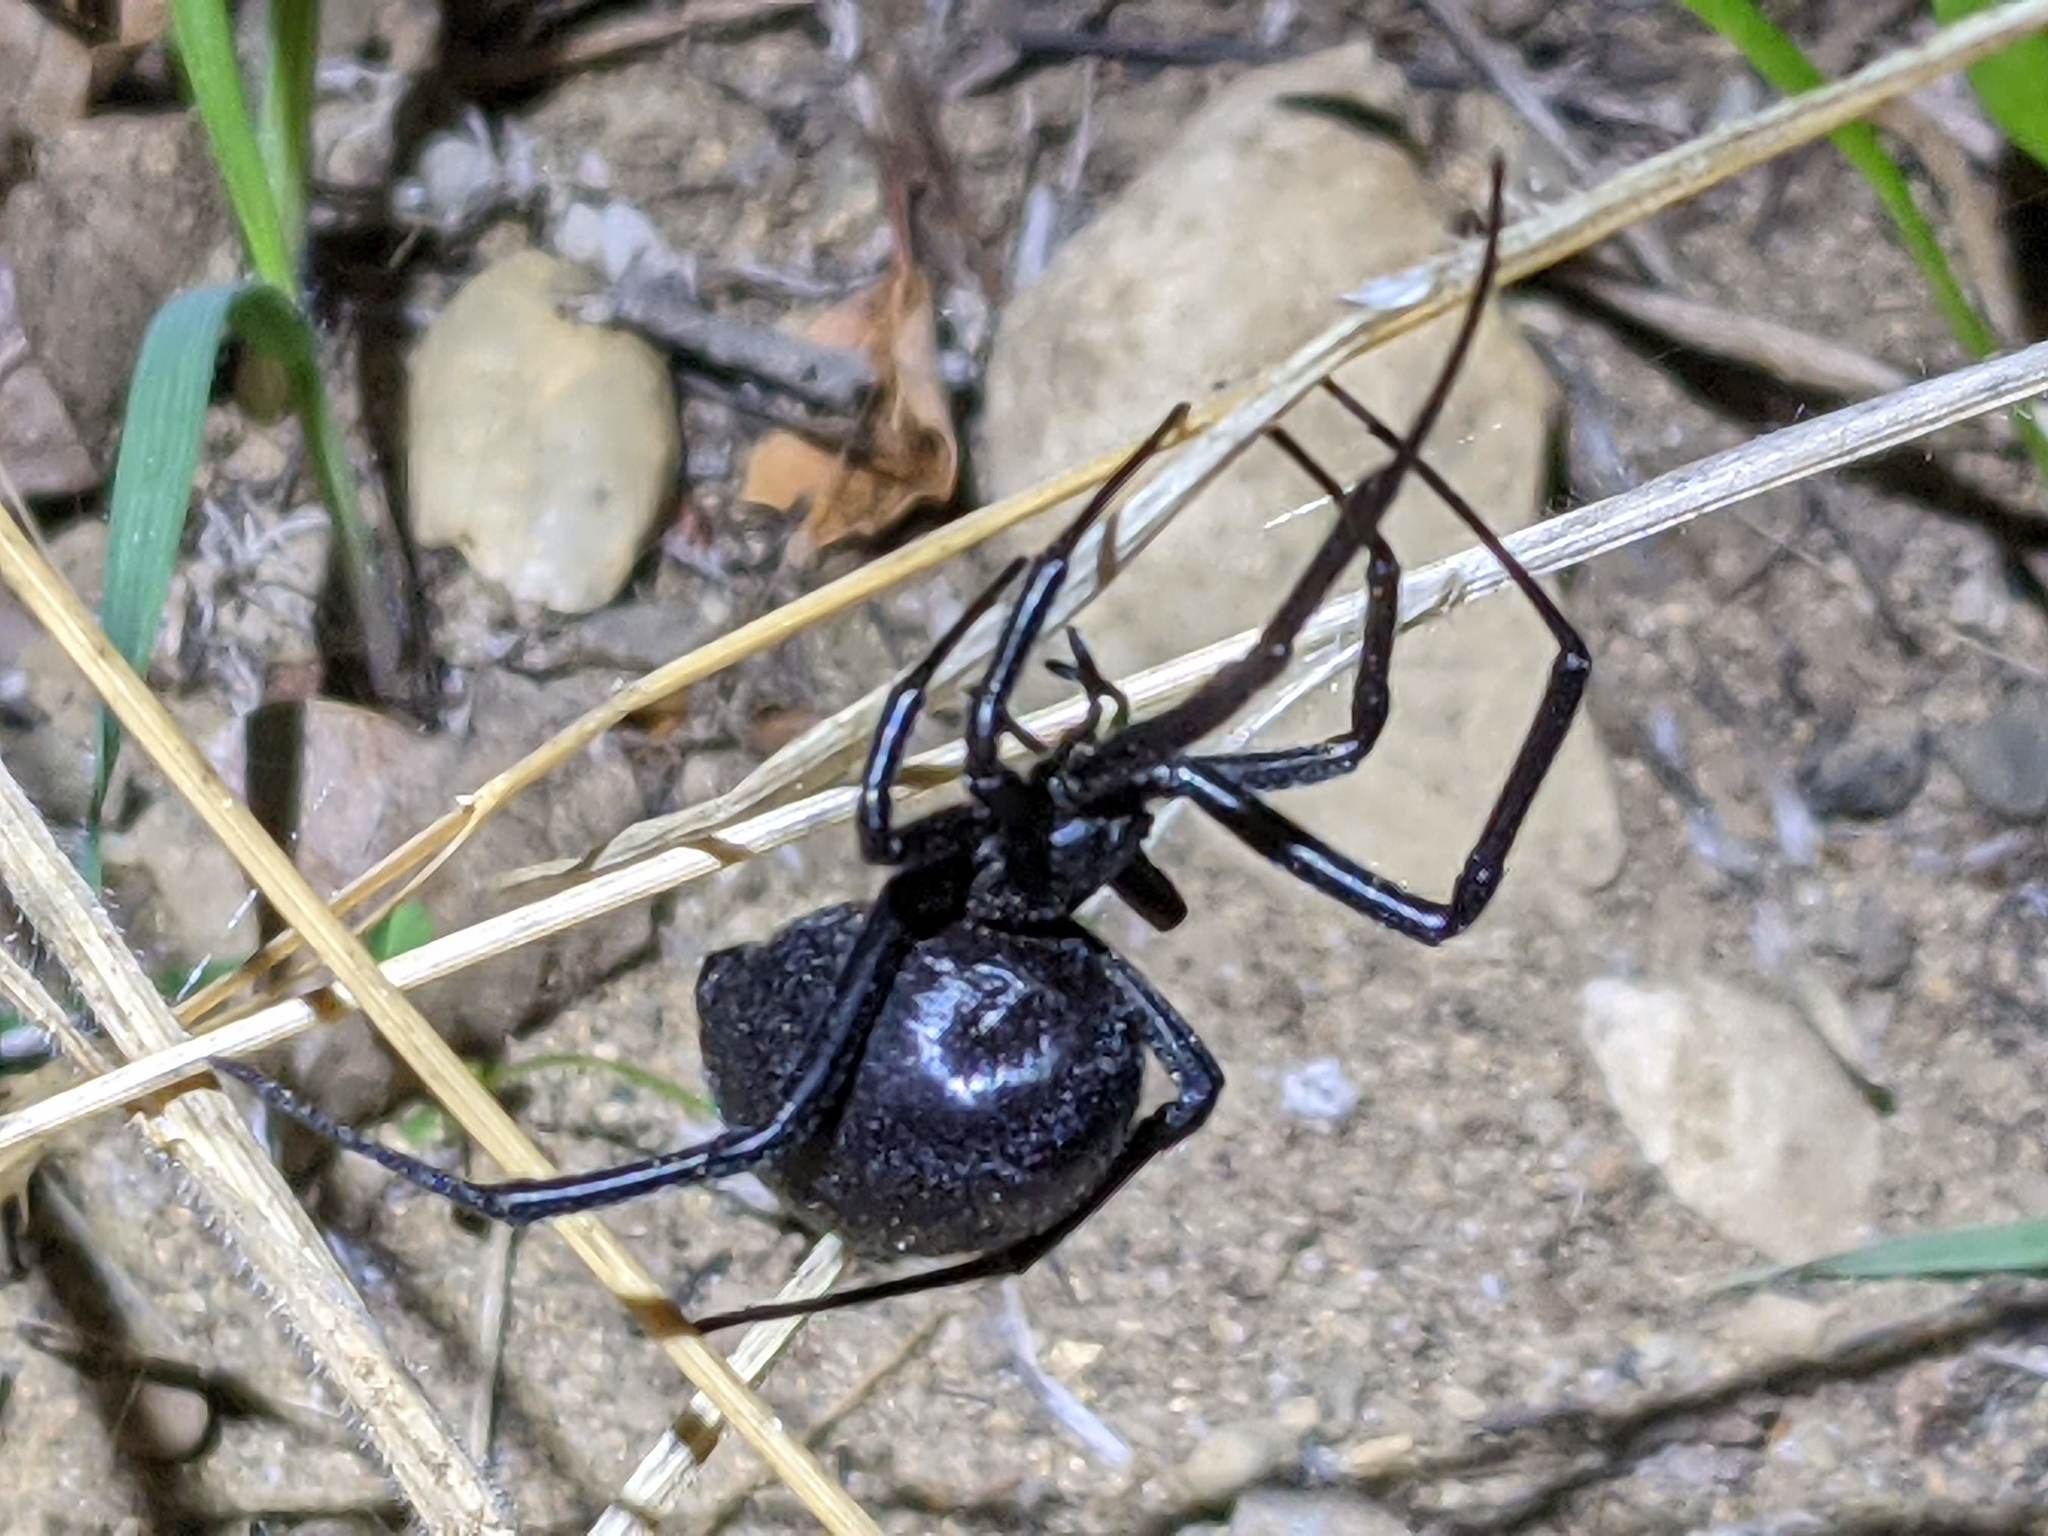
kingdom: Animalia
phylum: Arthropoda
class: Arachnida
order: Araneae
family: Theridiidae
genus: Latrodectus
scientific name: Latrodectus hesperus
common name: Western black widow
